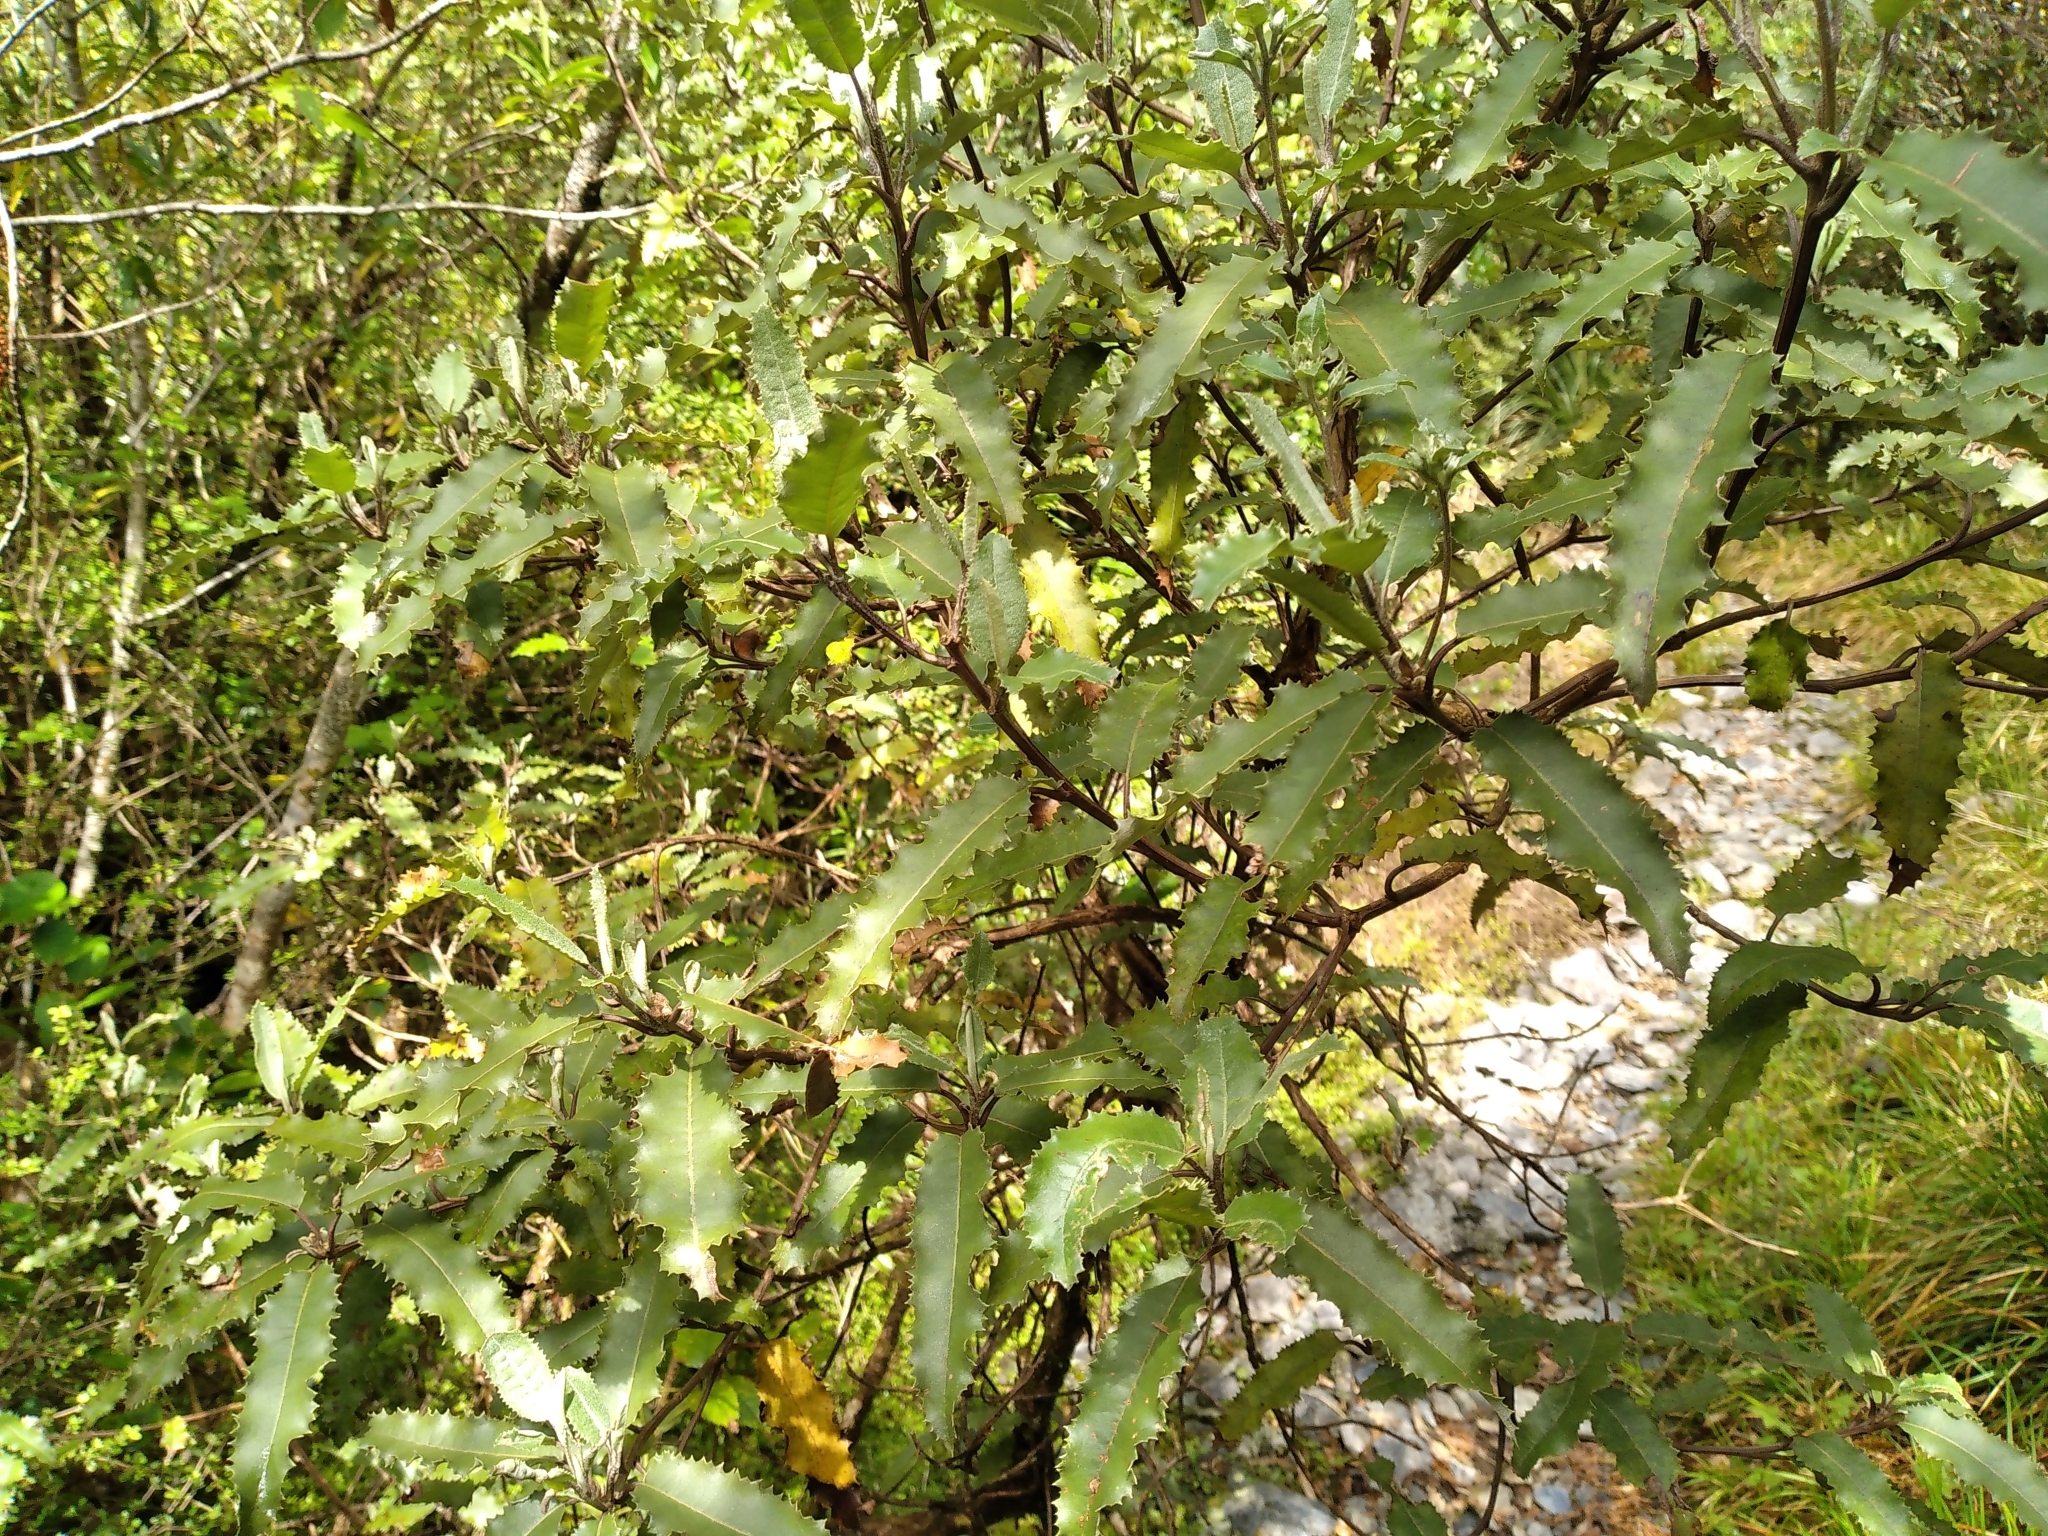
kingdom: Plantae
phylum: Tracheophyta
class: Magnoliopsida
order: Asterales
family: Asteraceae
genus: Olearia
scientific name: Olearia ilicifolia
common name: Maori-holly
